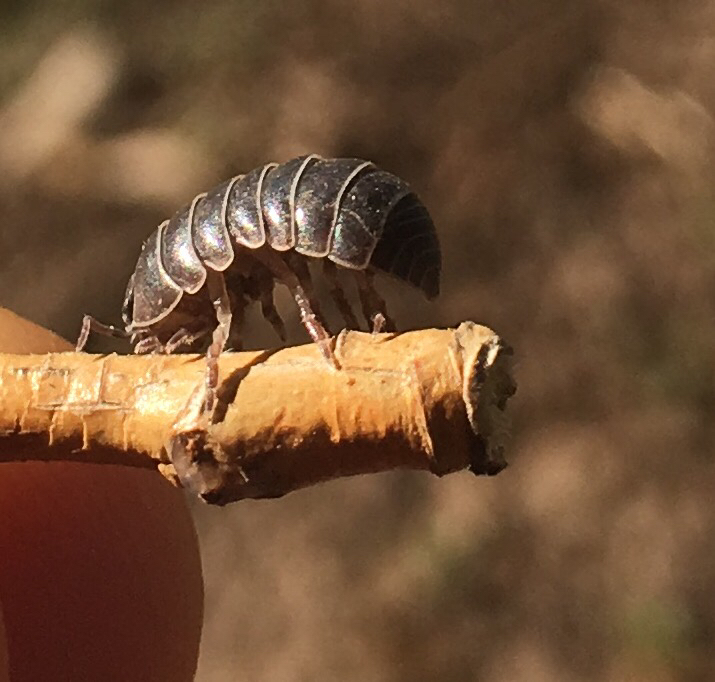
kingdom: Animalia
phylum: Arthropoda
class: Malacostraca
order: Isopoda
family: Armadillidiidae
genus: Armadillidium
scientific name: Armadillidium vulgare
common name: Common pill woodlouse
